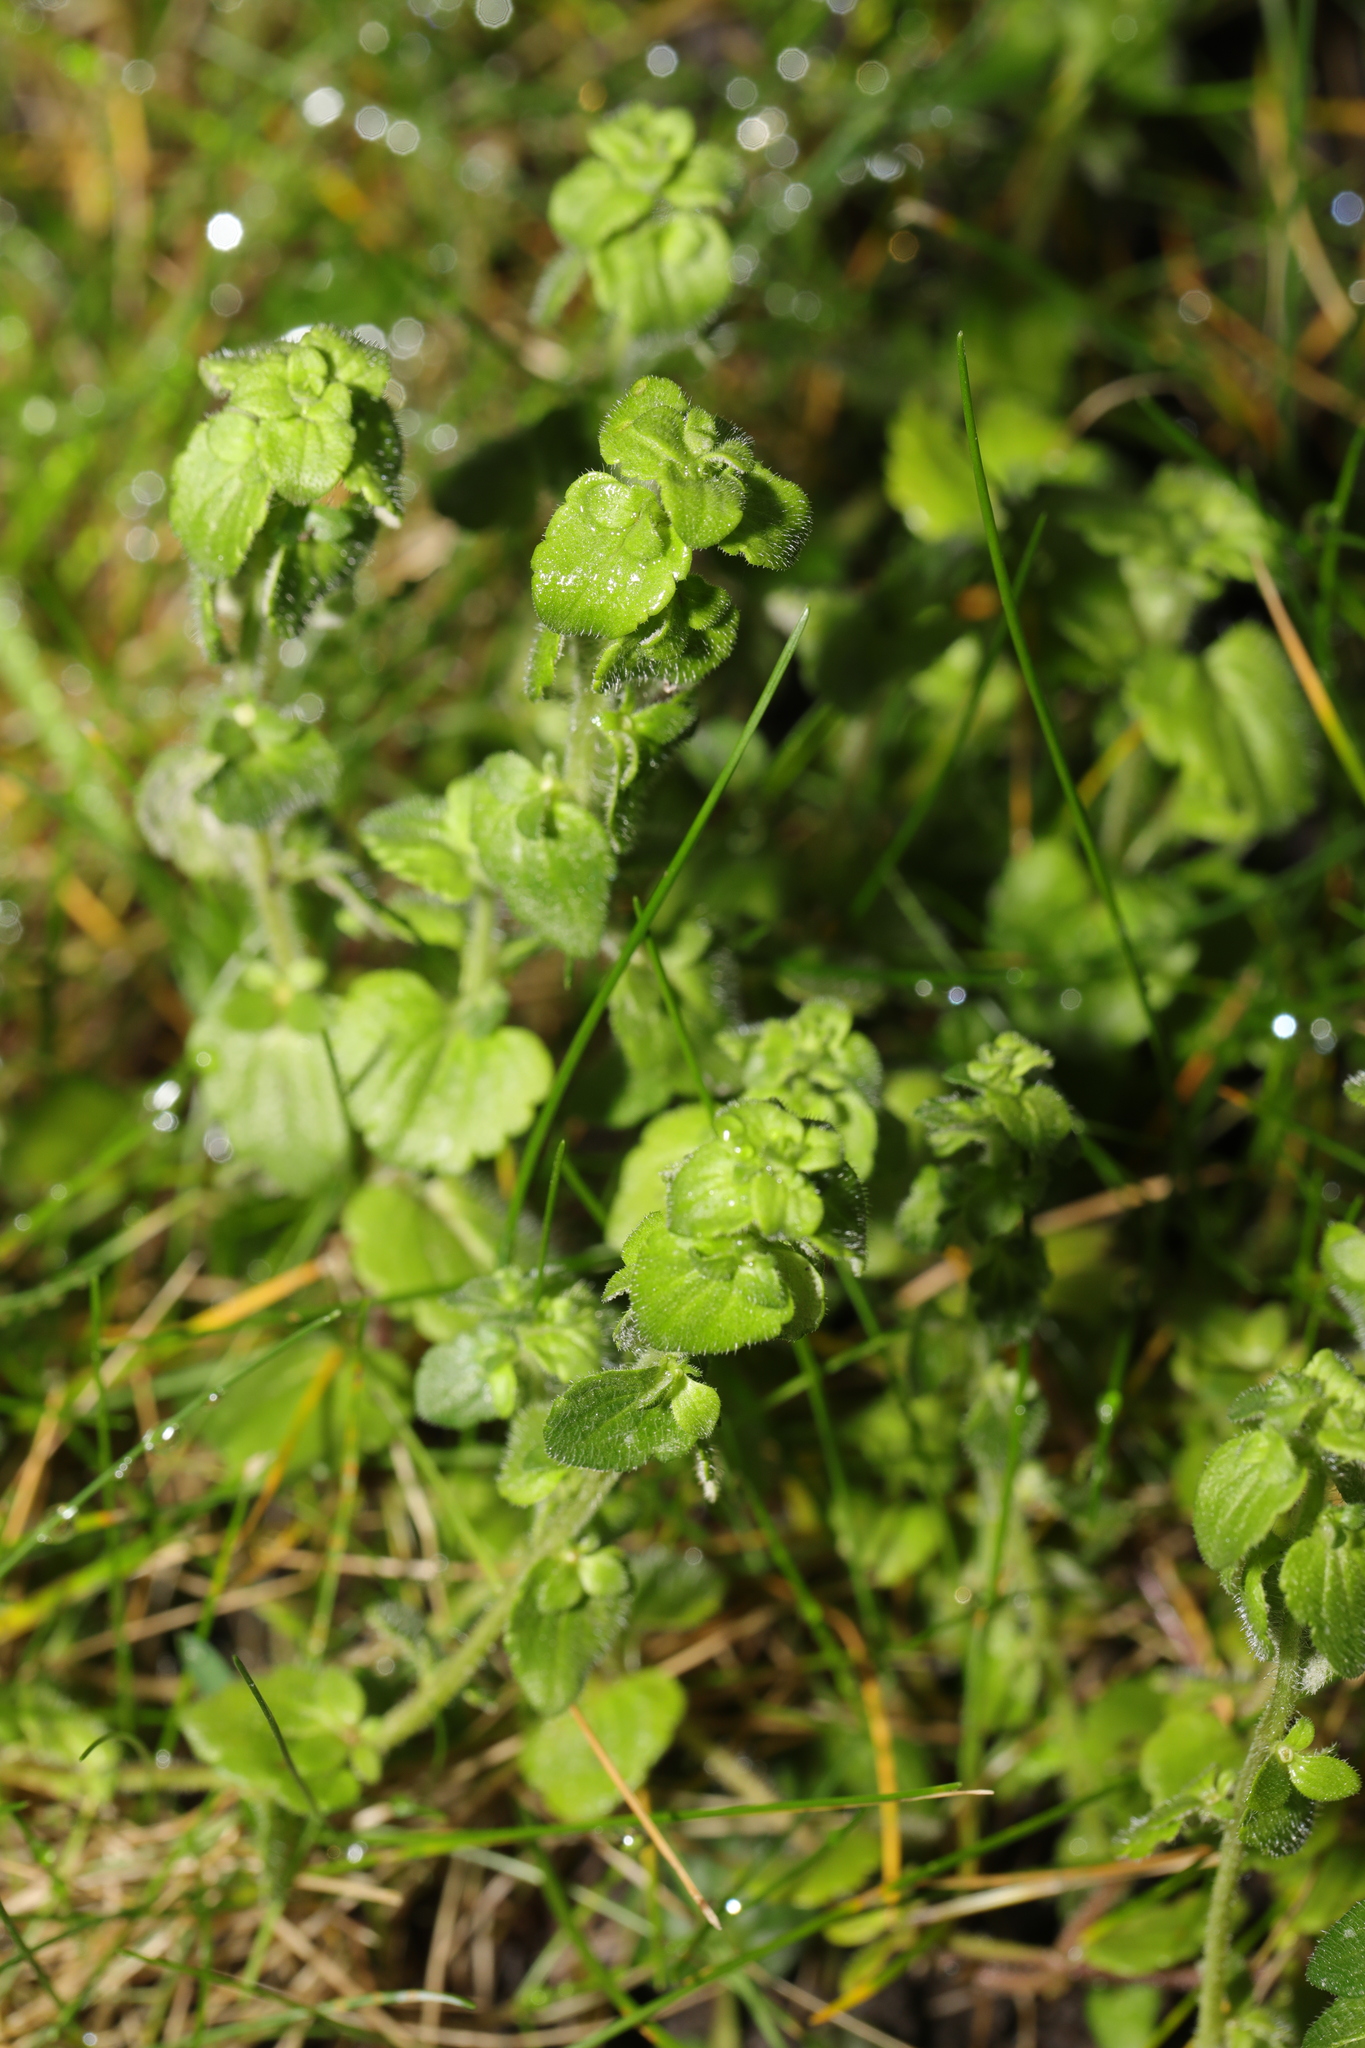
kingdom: Plantae
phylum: Tracheophyta
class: Magnoliopsida
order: Lamiales
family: Plantaginaceae
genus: Veronica
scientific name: Veronica arvensis
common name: Corn speedwell
